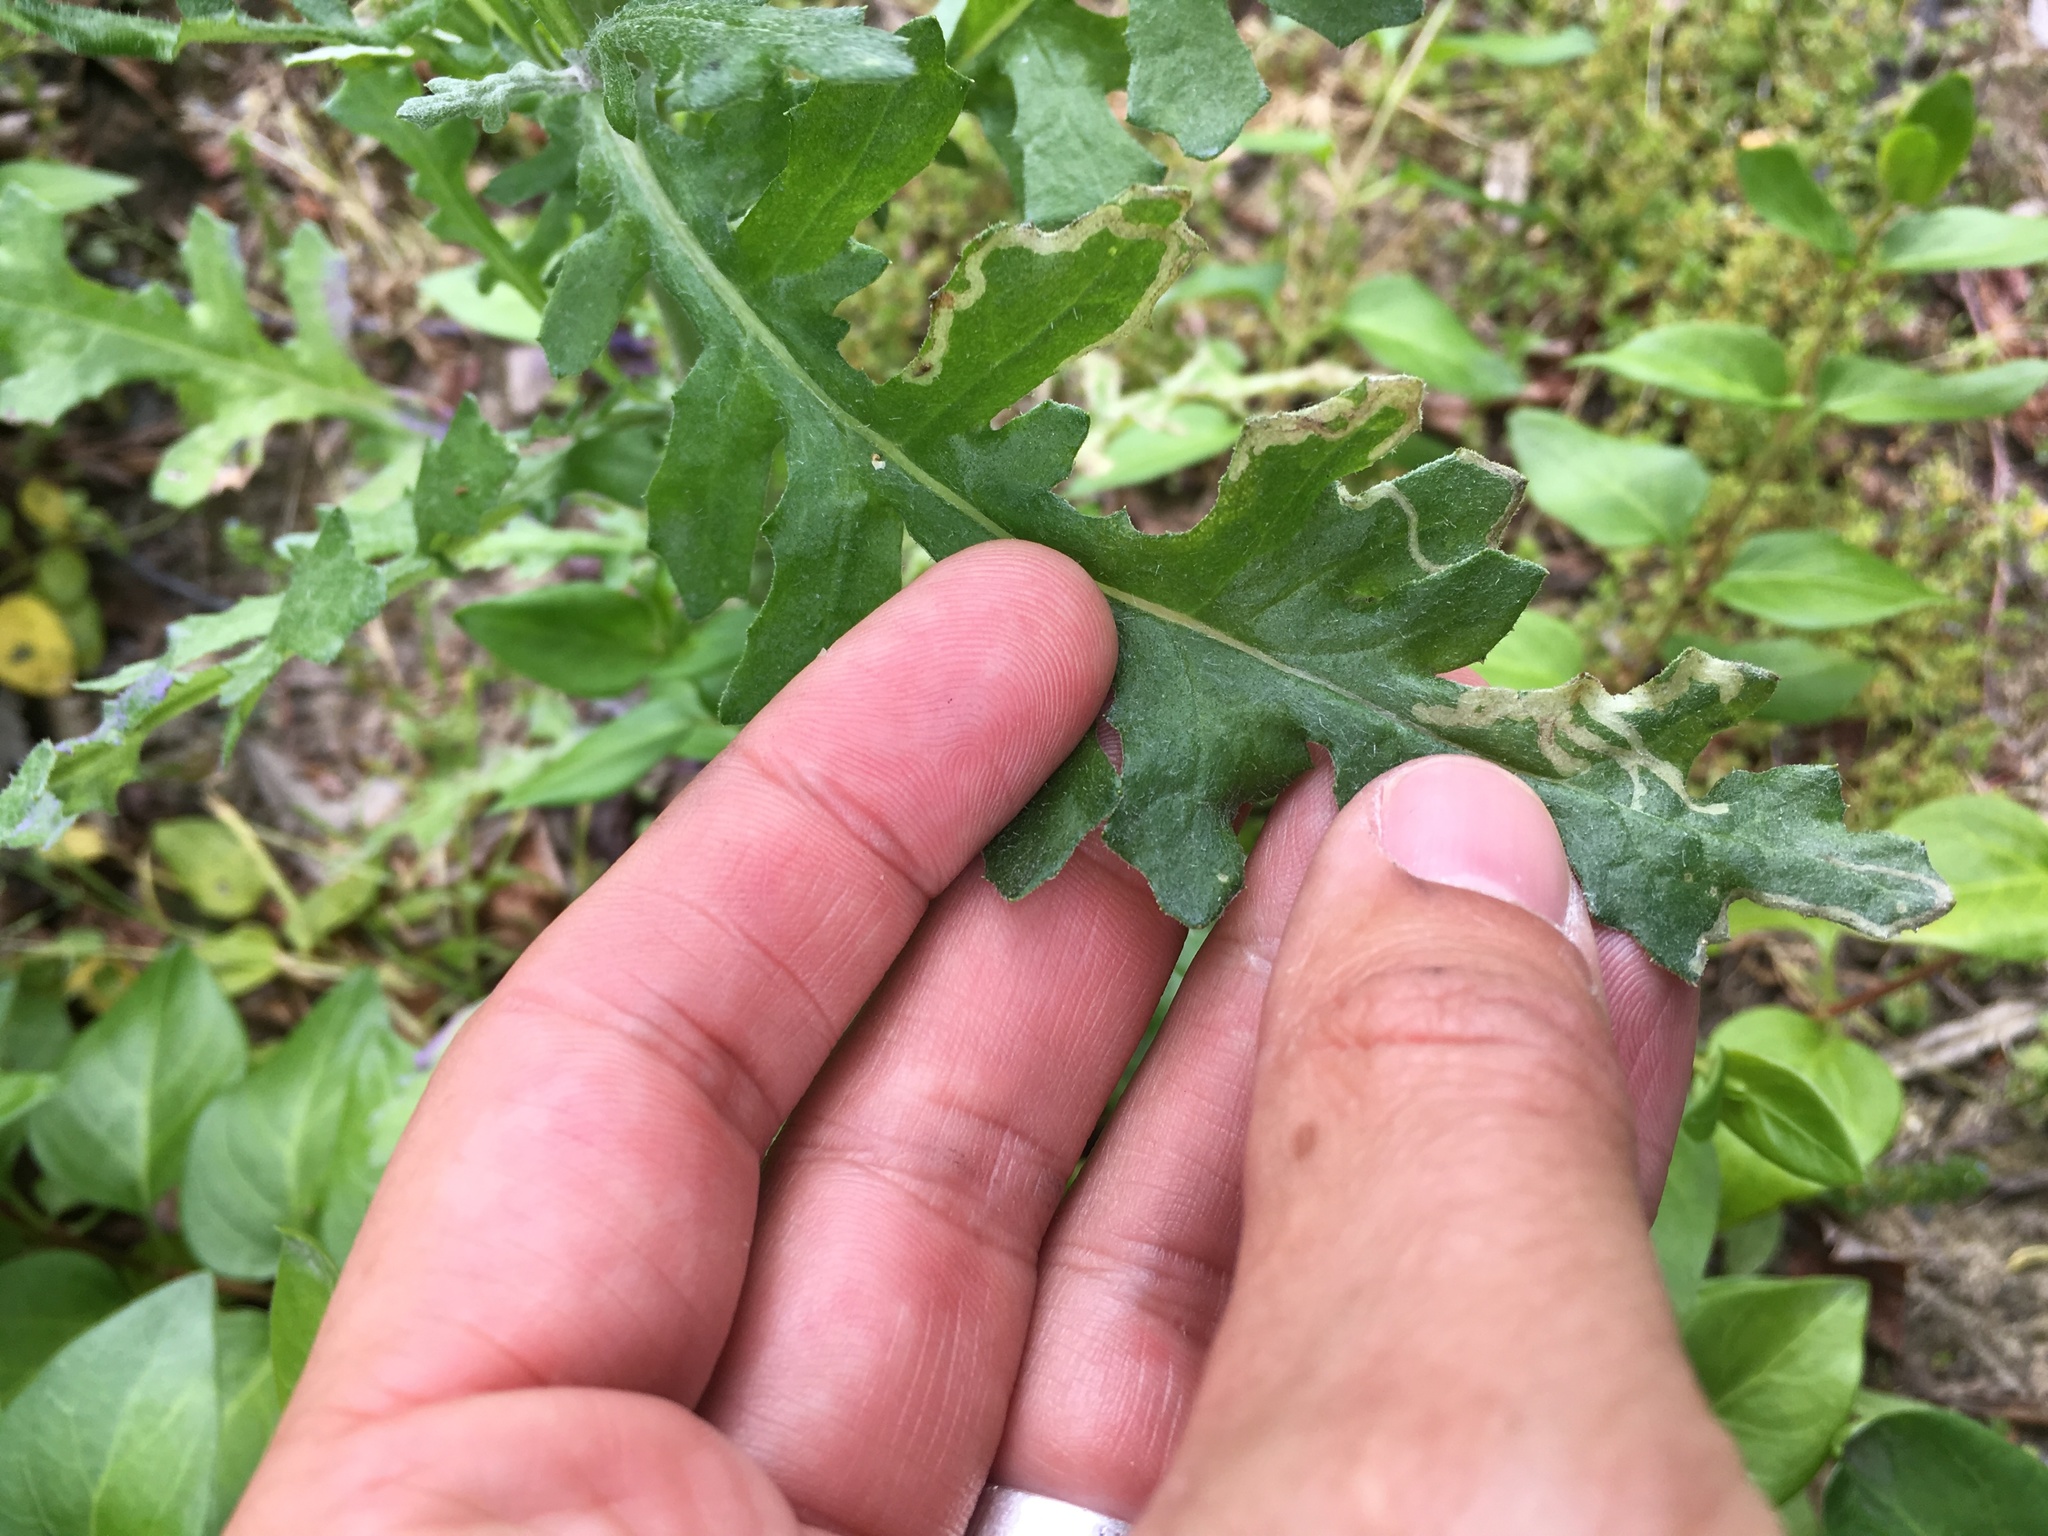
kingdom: Animalia
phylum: Arthropoda
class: Insecta
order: Diptera
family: Agromyzidae
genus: Phytomyza
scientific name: Phytomyza syngenesiae
